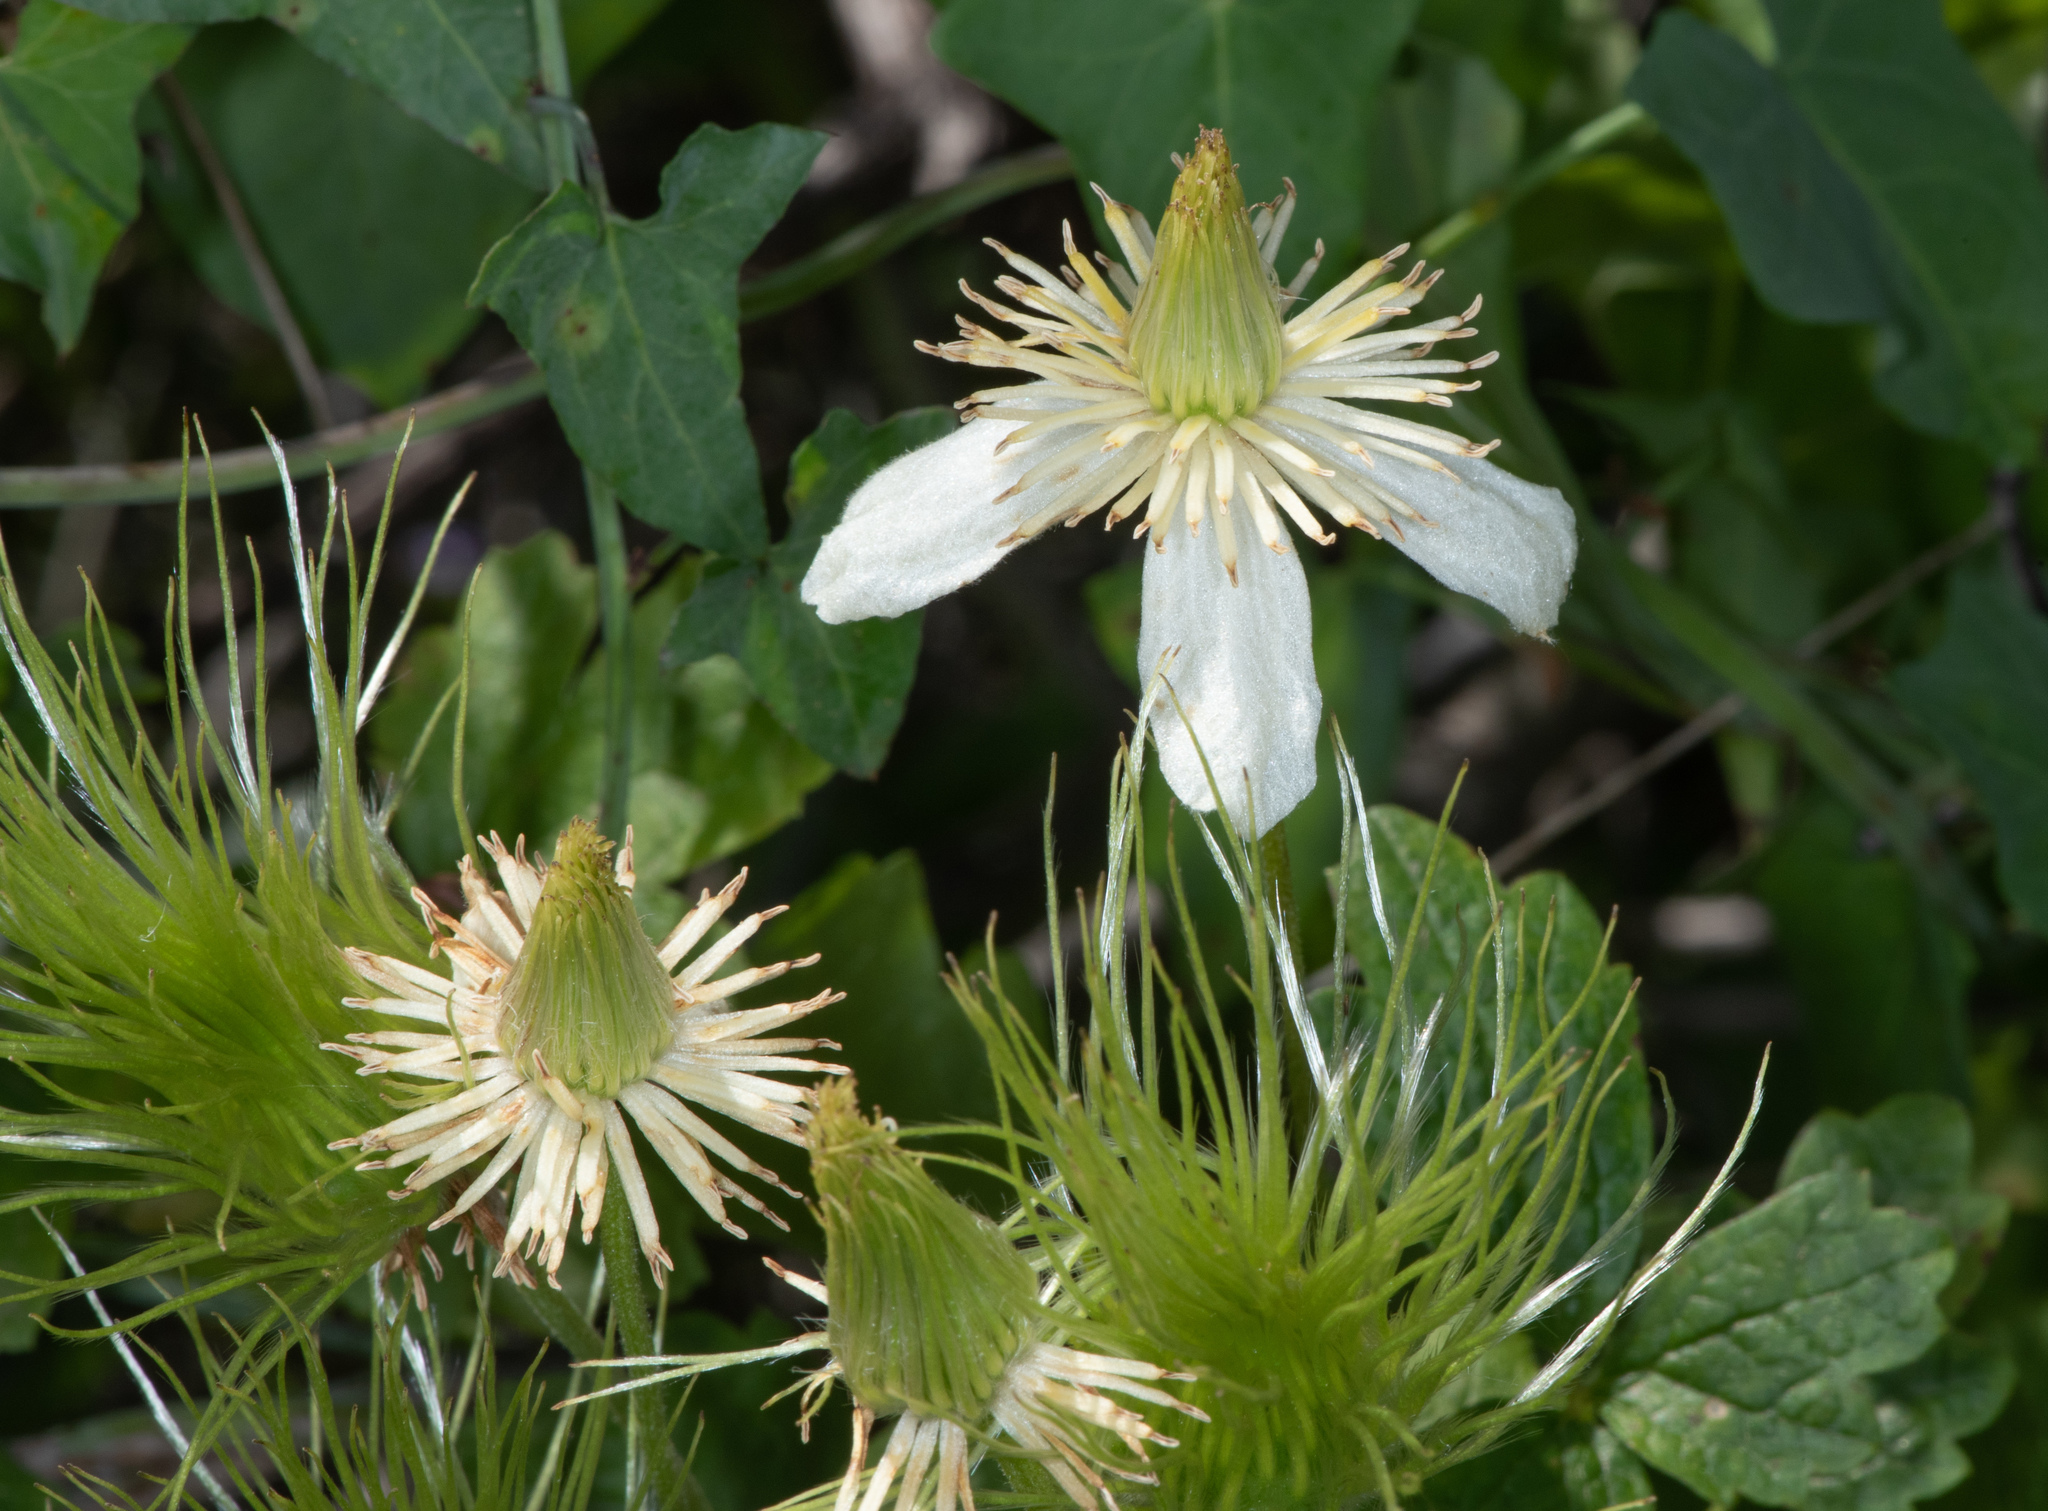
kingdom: Plantae
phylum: Tracheophyta
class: Magnoliopsida
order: Ranunculales
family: Ranunculaceae
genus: Clematis
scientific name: Clematis lasiantha
